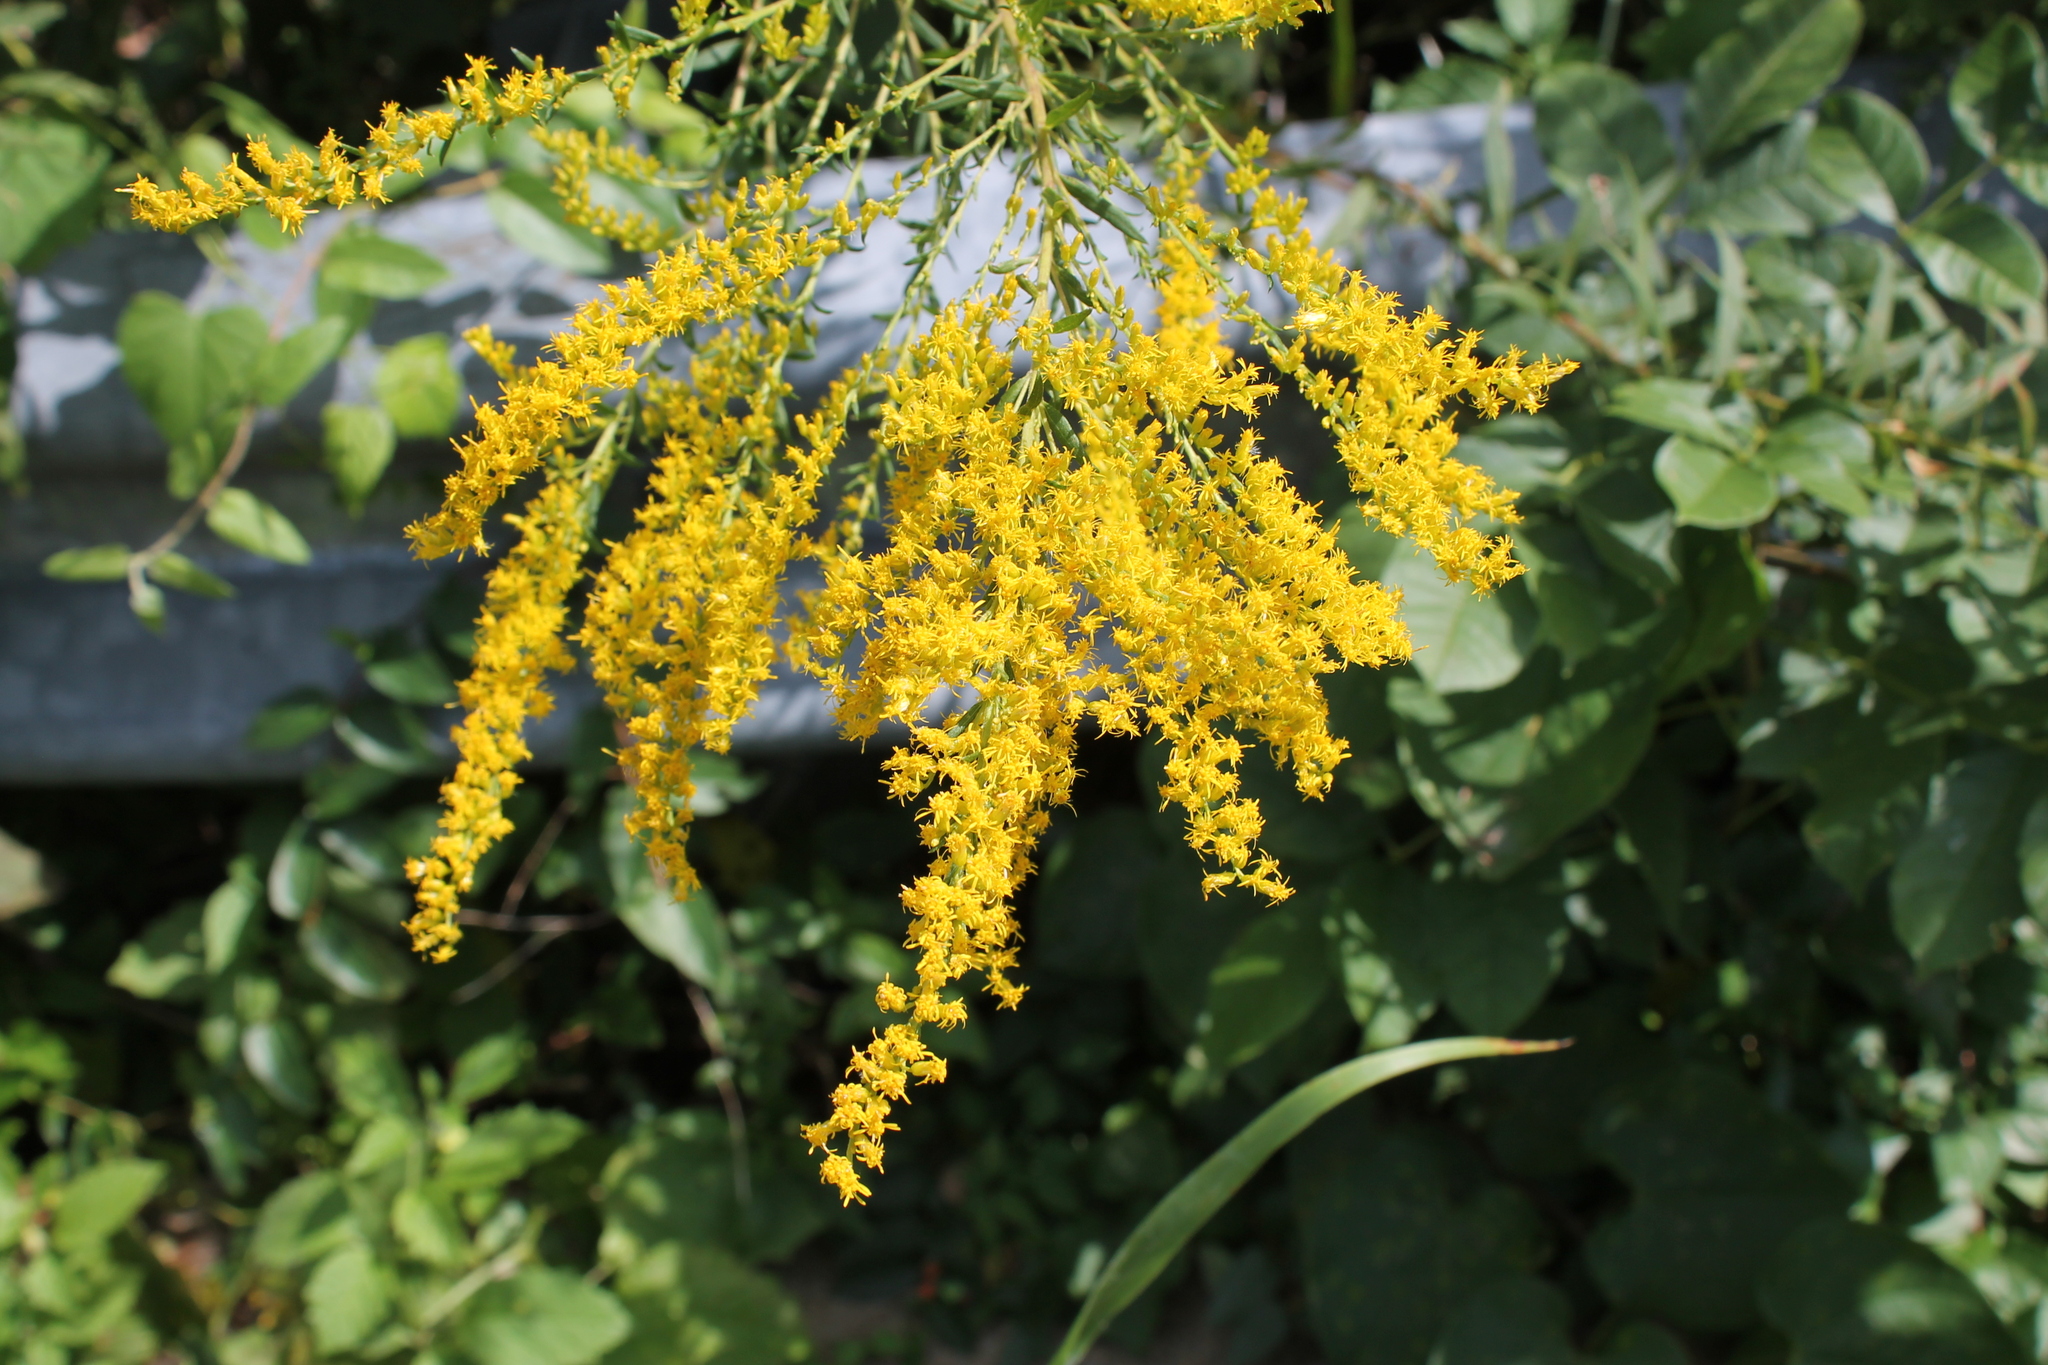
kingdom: Plantae
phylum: Tracheophyta
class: Magnoliopsida
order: Asterales
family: Asteraceae
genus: Solidago
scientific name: Solidago altissima
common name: Late goldenrod
